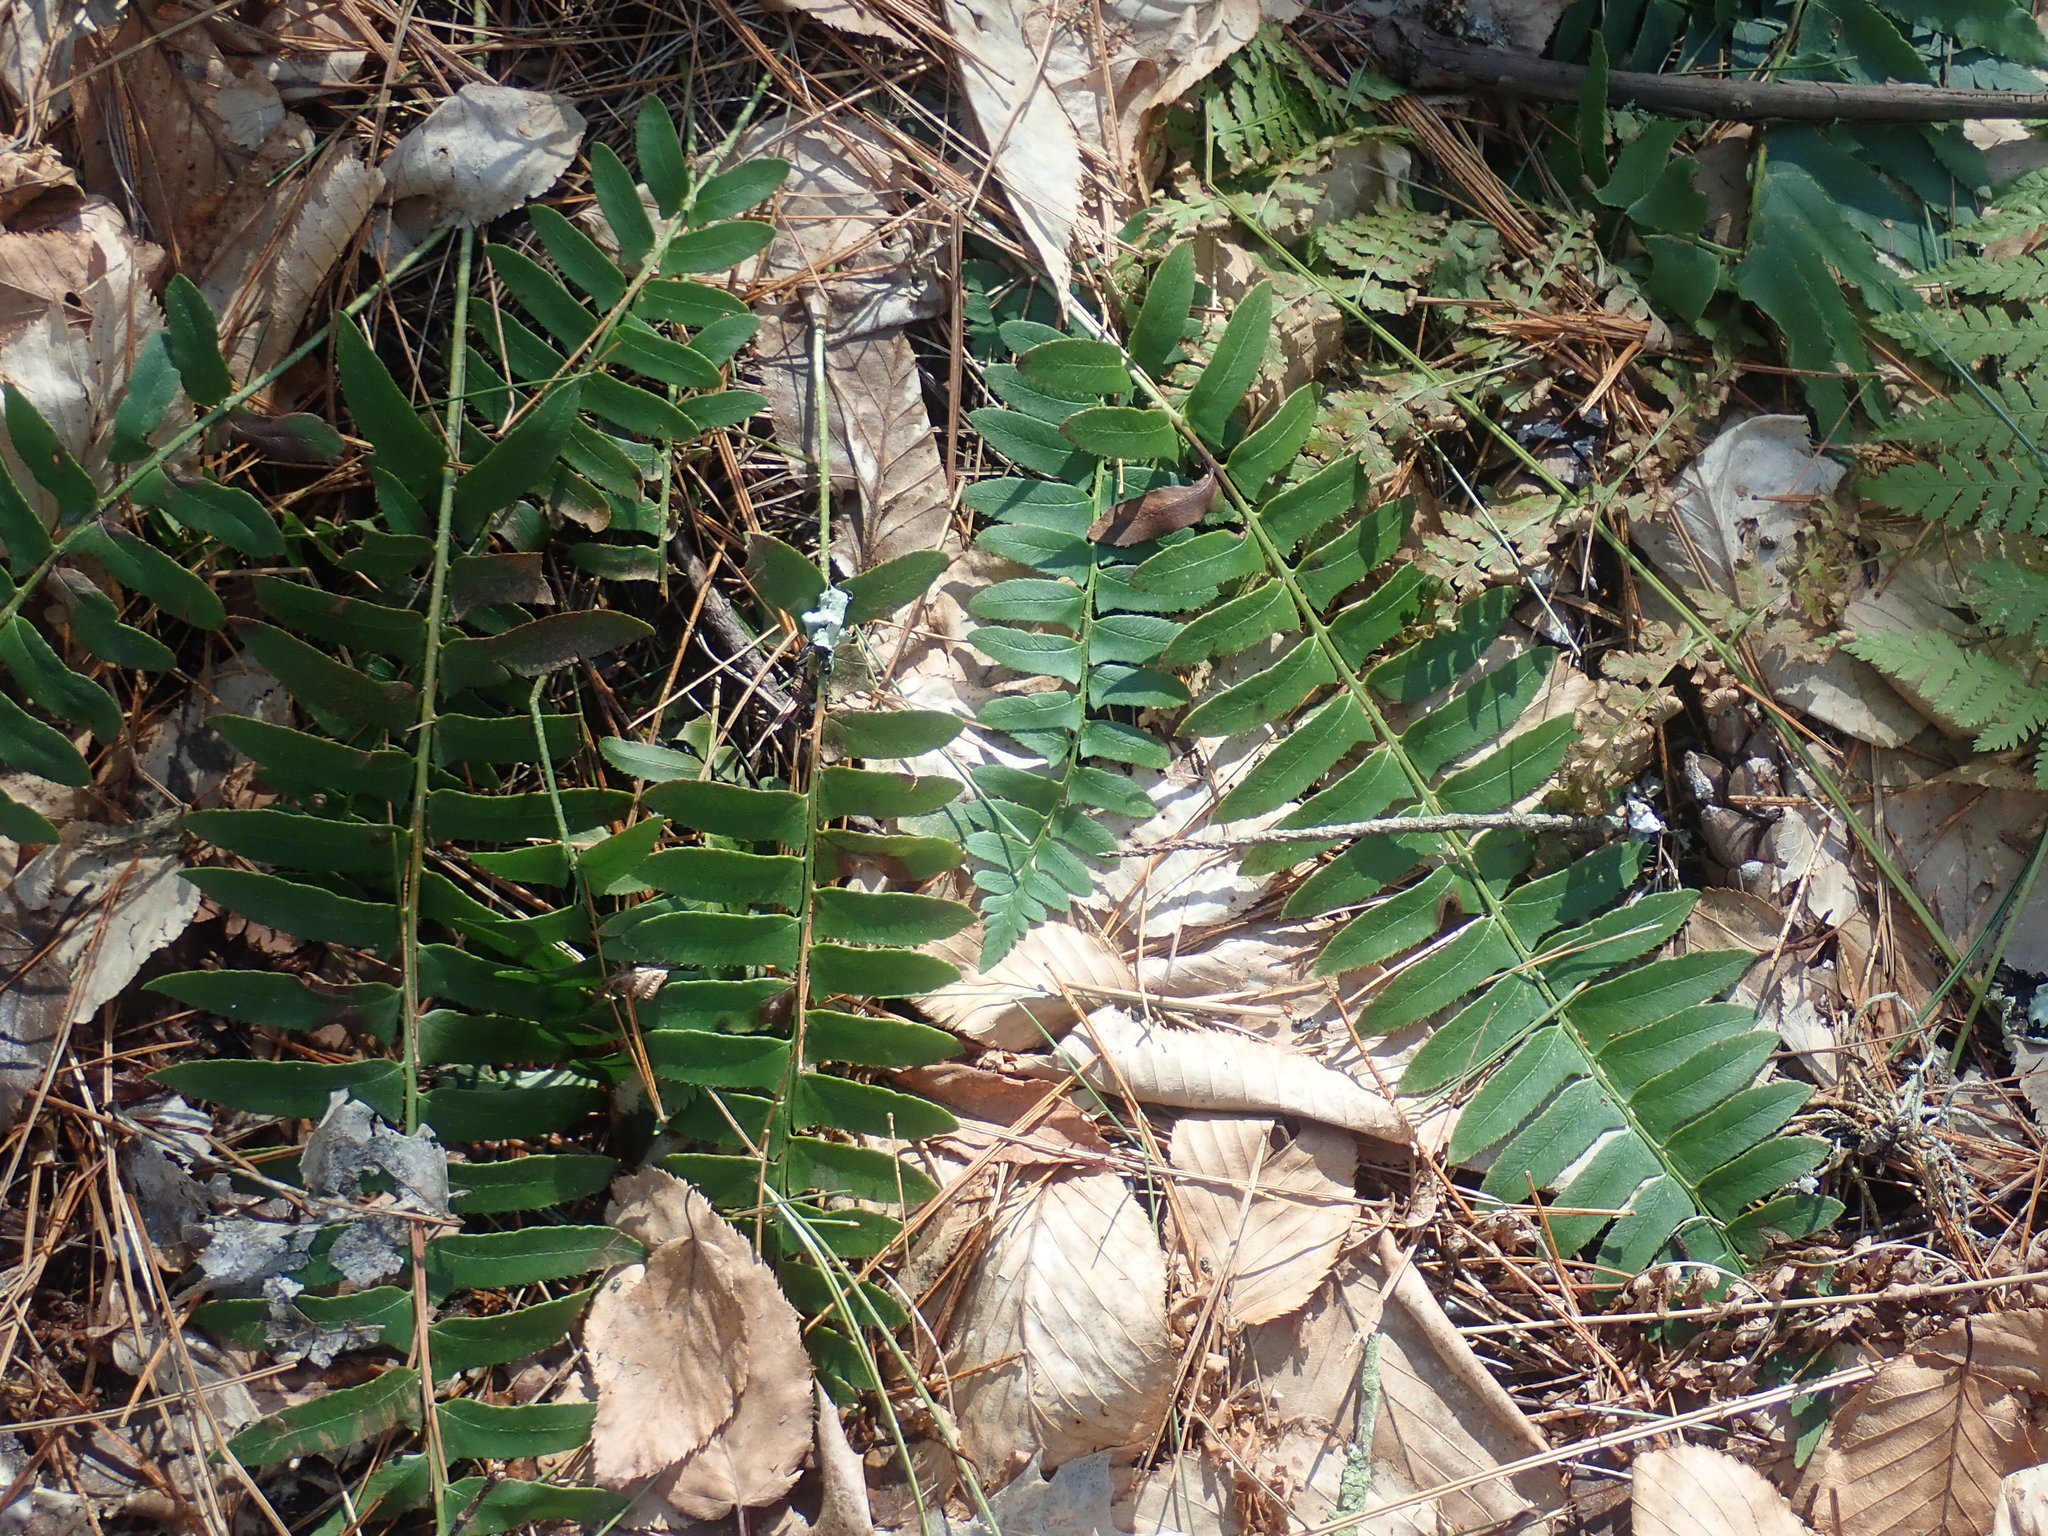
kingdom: Plantae
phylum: Tracheophyta
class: Polypodiopsida
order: Polypodiales
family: Dryopteridaceae
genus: Polystichum
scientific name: Polystichum acrostichoides
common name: Christmas fern
